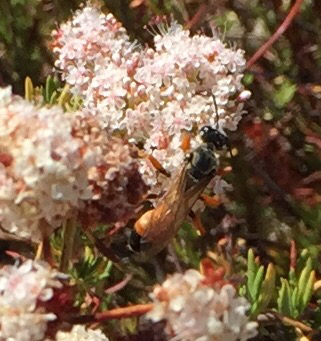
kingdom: Animalia
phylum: Arthropoda
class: Insecta
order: Hymenoptera
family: Sphecidae
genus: Sphex
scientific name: Sphex ichneumoneus
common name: Great golden digger wasp
